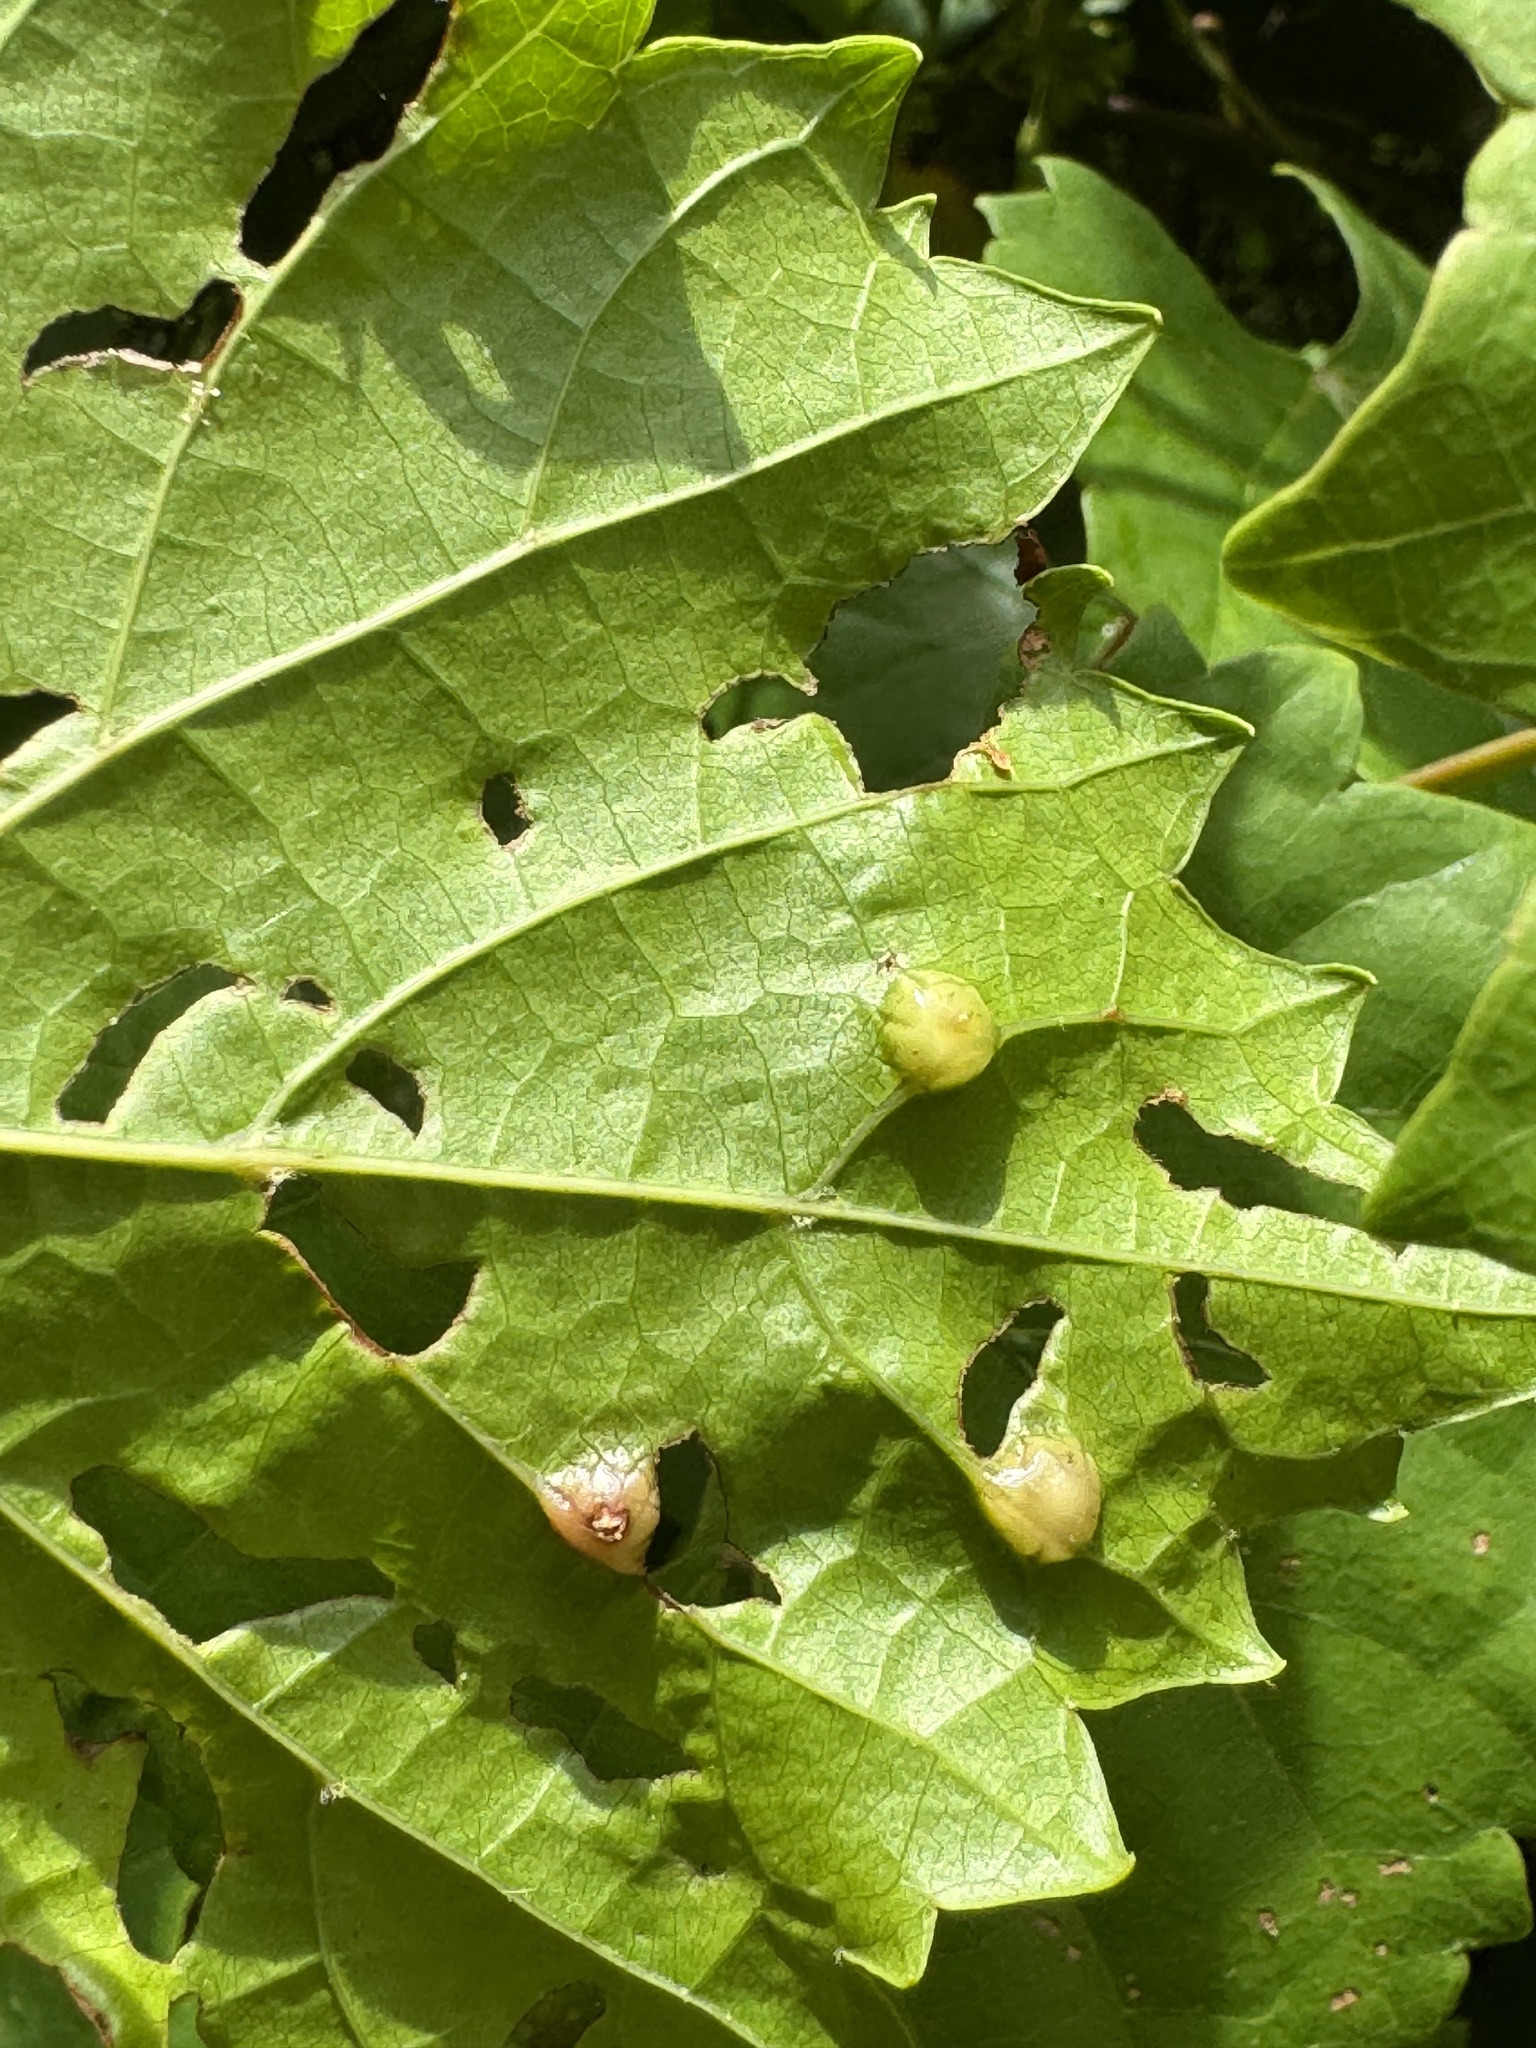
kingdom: Animalia
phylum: Arthropoda
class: Insecta
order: Diptera
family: Cecidomyiidae
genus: Vitisiella
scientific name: Vitisiella brevicauda
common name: Grape tumid gallmaker midge
